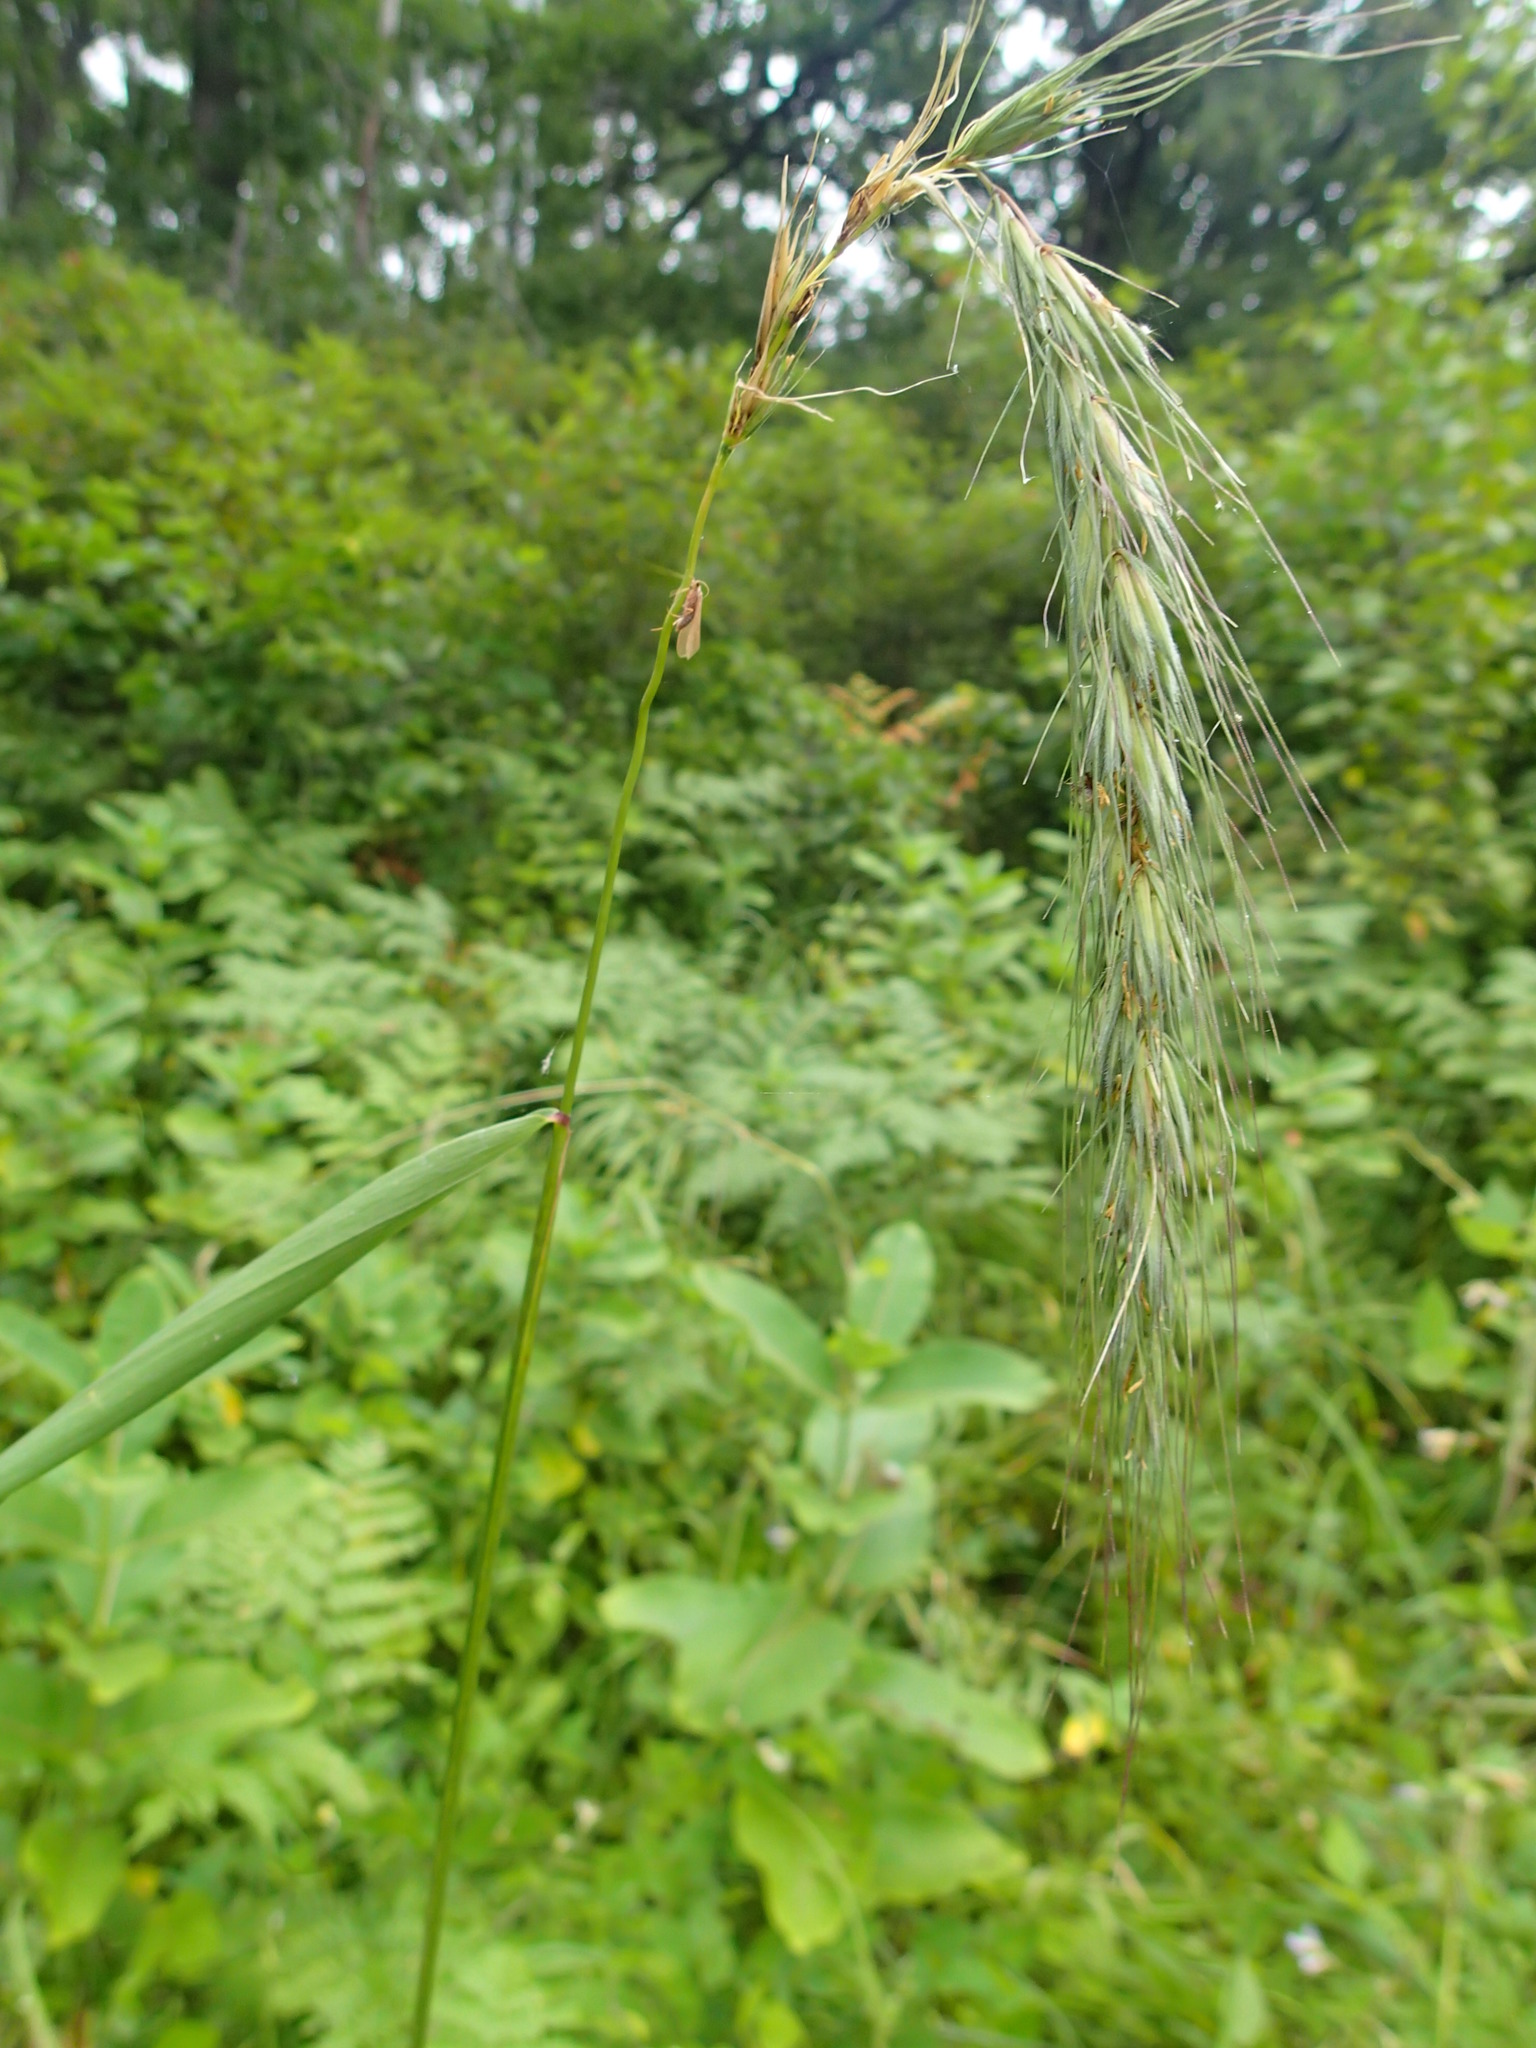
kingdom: Plantae
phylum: Tracheophyta
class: Liliopsida
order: Poales
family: Poaceae
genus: Elymus
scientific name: Elymus canadensis
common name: Canada wild rye
